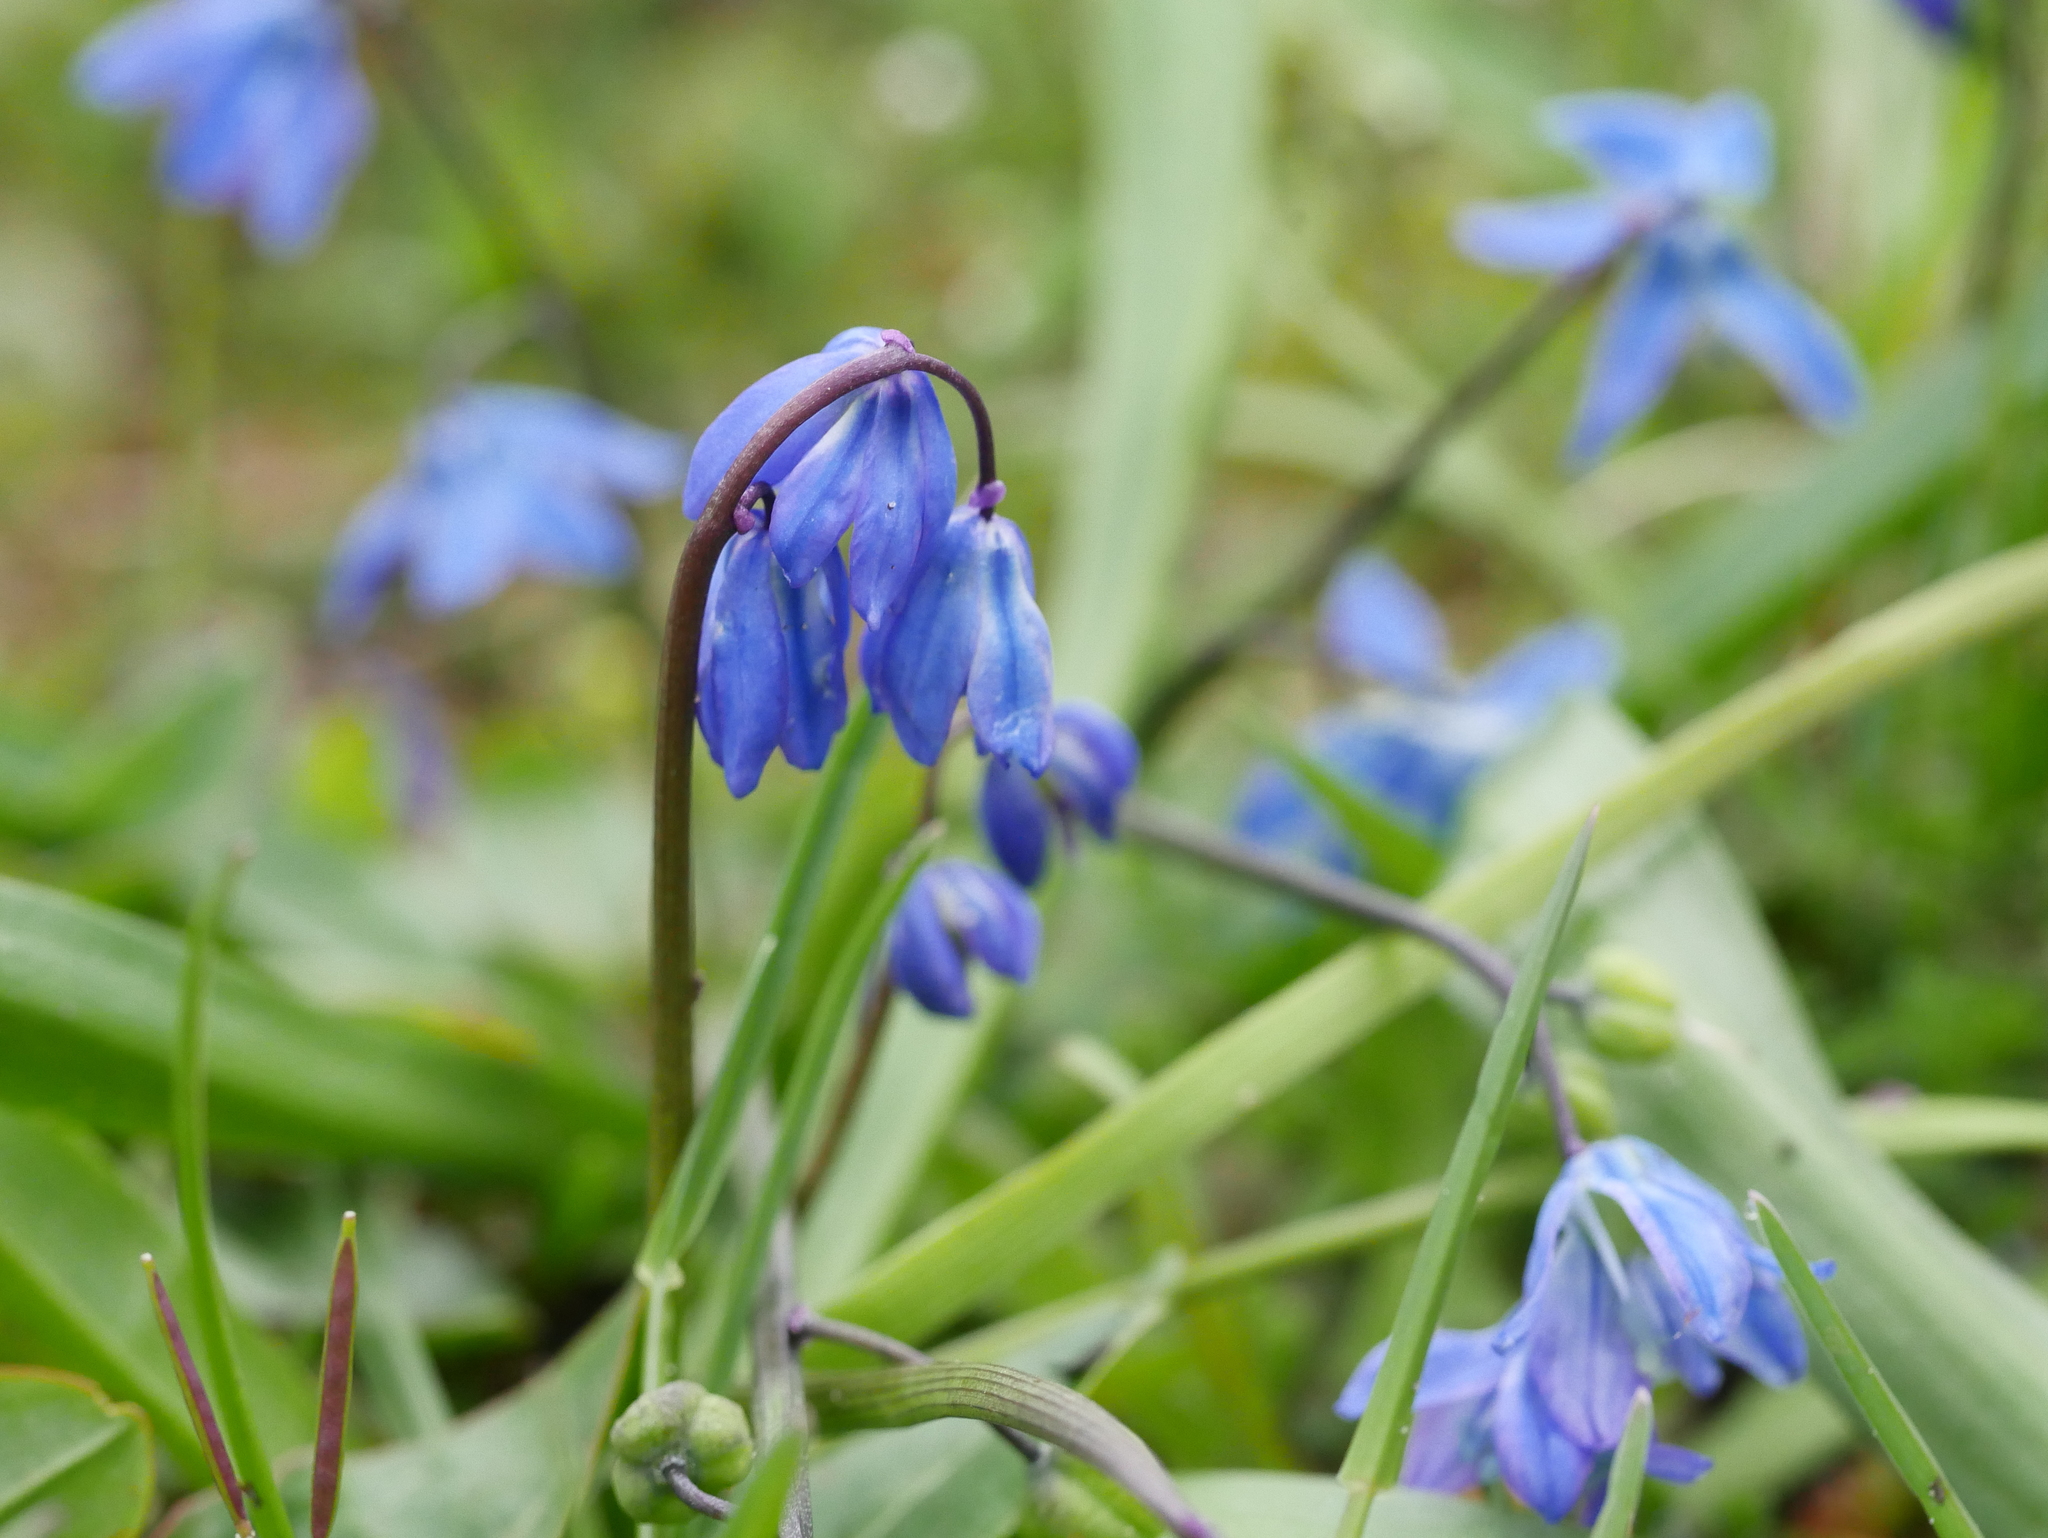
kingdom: Plantae
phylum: Tracheophyta
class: Liliopsida
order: Asparagales
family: Asparagaceae
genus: Scilla
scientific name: Scilla siberica
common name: Siberian squill
